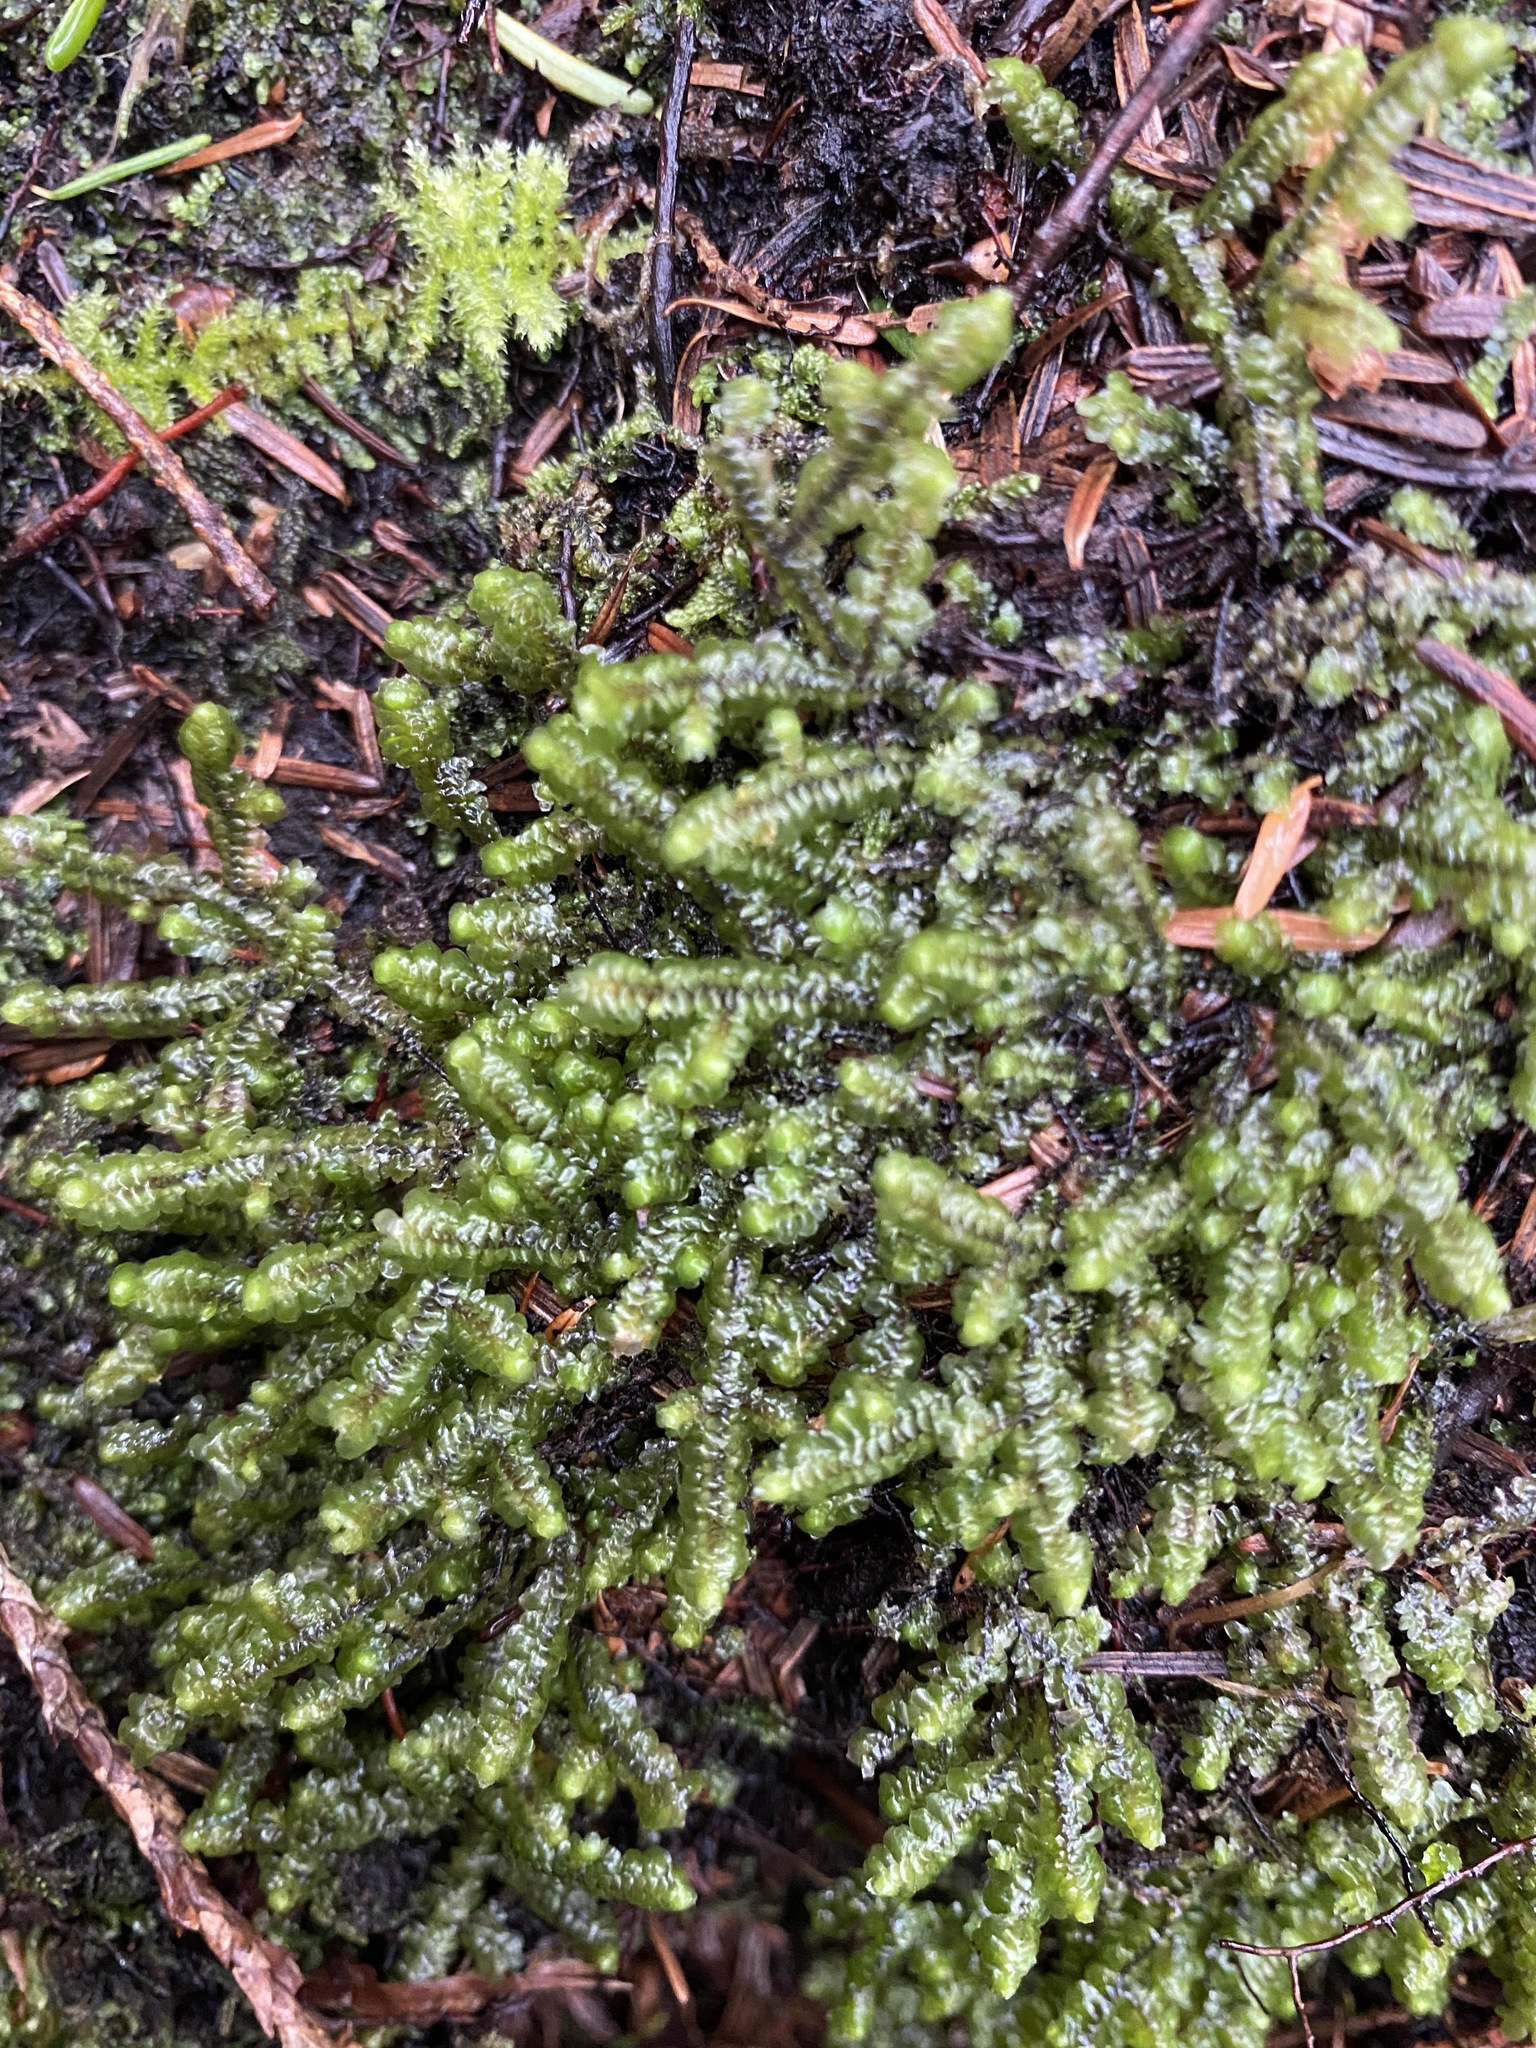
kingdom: Plantae
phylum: Marchantiophyta
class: Jungermanniopsida
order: Jungermanniales
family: Scapaniaceae
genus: Scapania
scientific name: Scapania bolanderi
